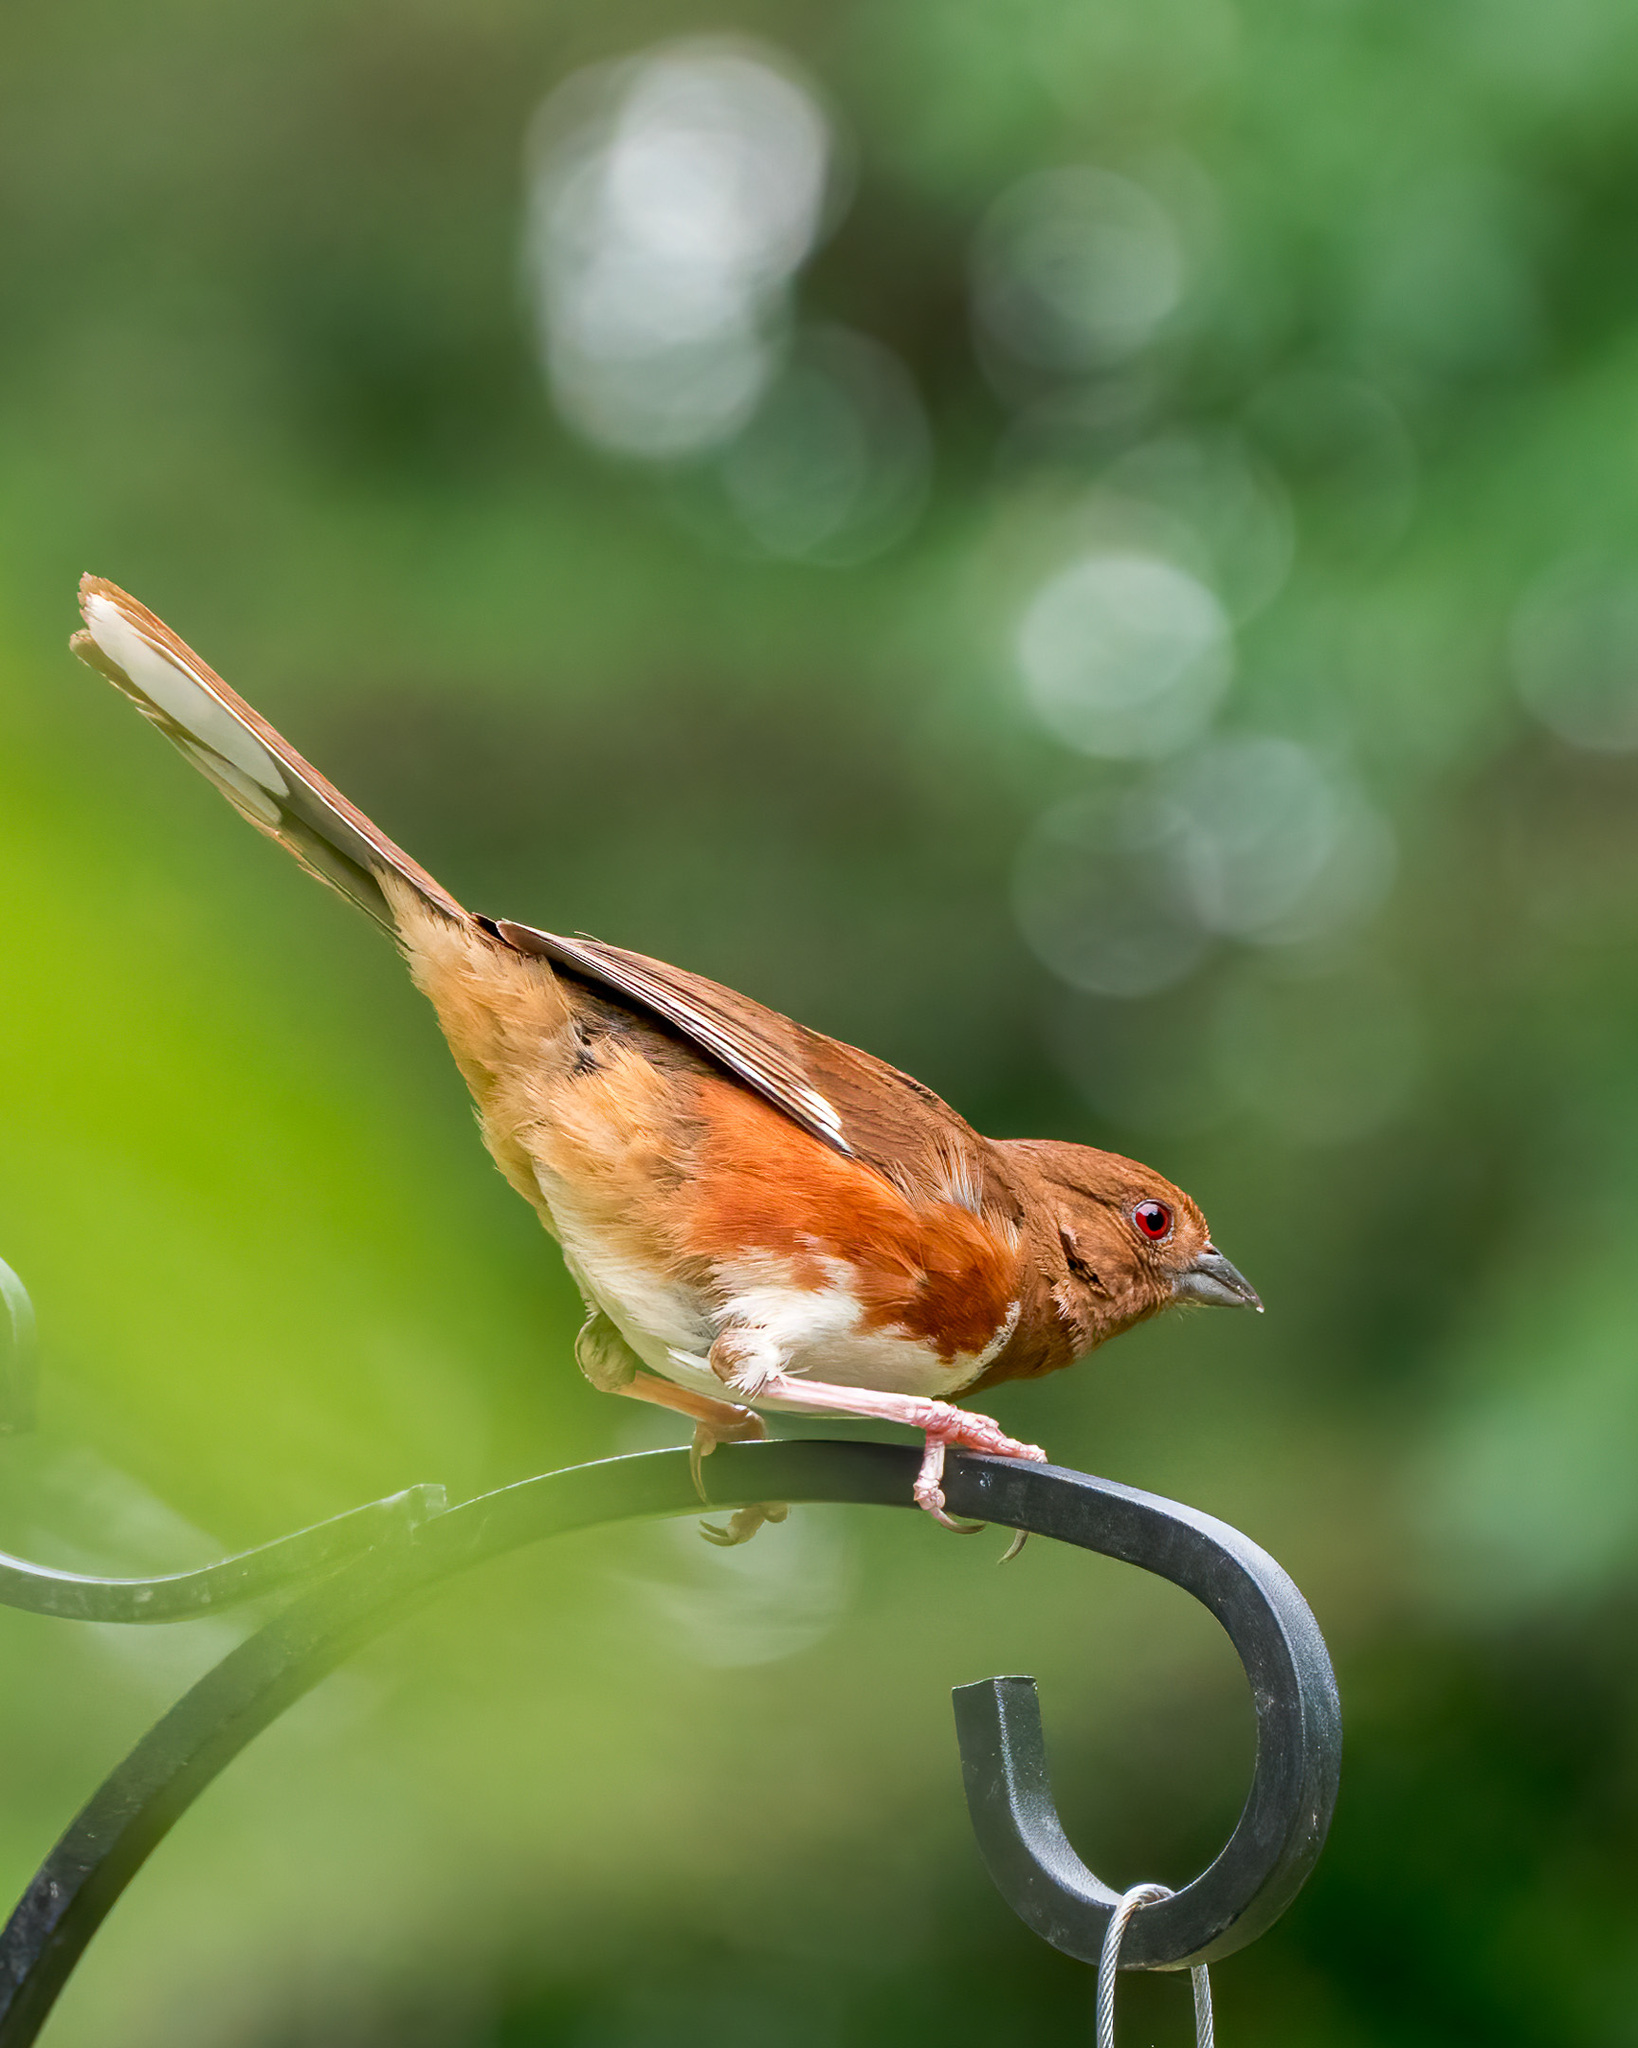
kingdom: Animalia
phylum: Chordata
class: Aves
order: Passeriformes
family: Passerellidae
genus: Pipilo
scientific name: Pipilo erythrophthalmus
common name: Eastern towhee
